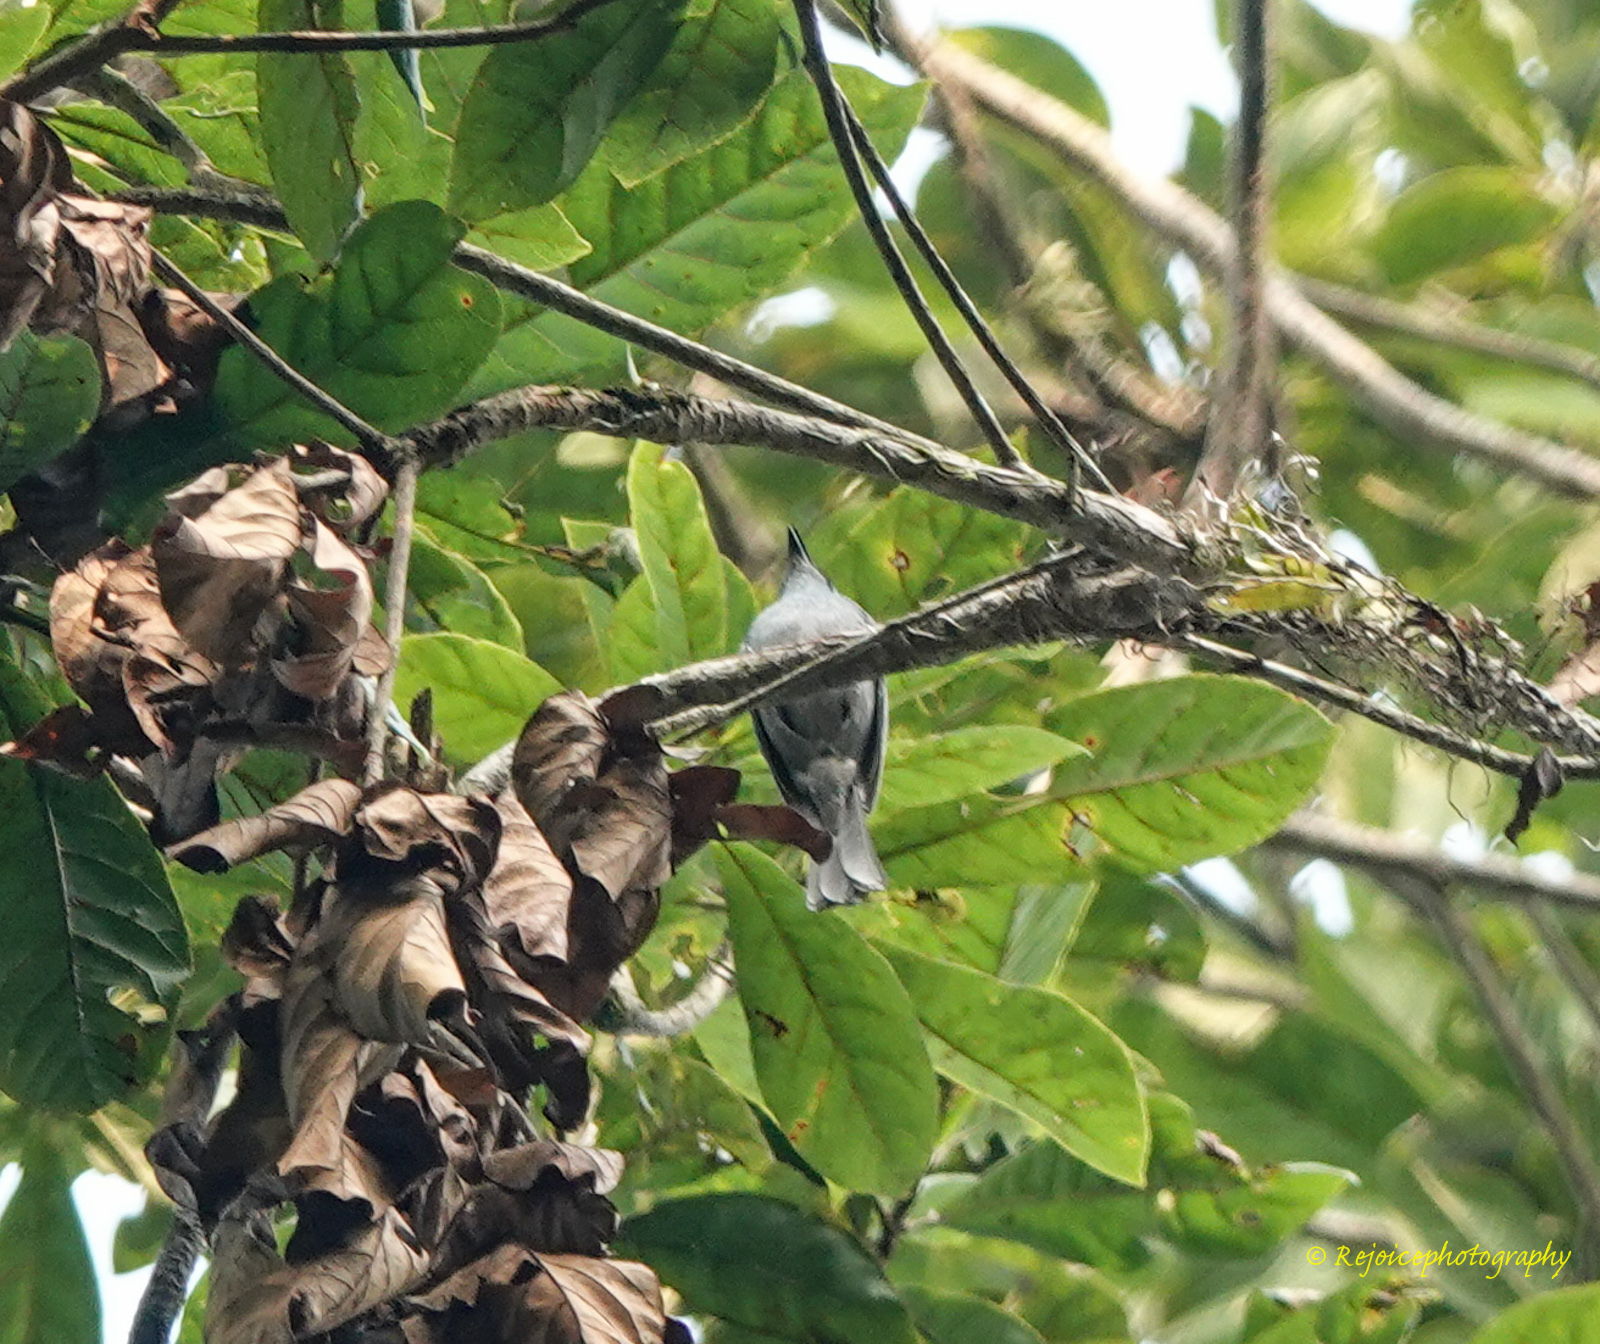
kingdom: Animalia
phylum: Chordata
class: Aves
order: Passeriformes
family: Muscicapidae
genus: Cyornis
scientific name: Cyornis unicolor
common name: Pale blue flycatcher
